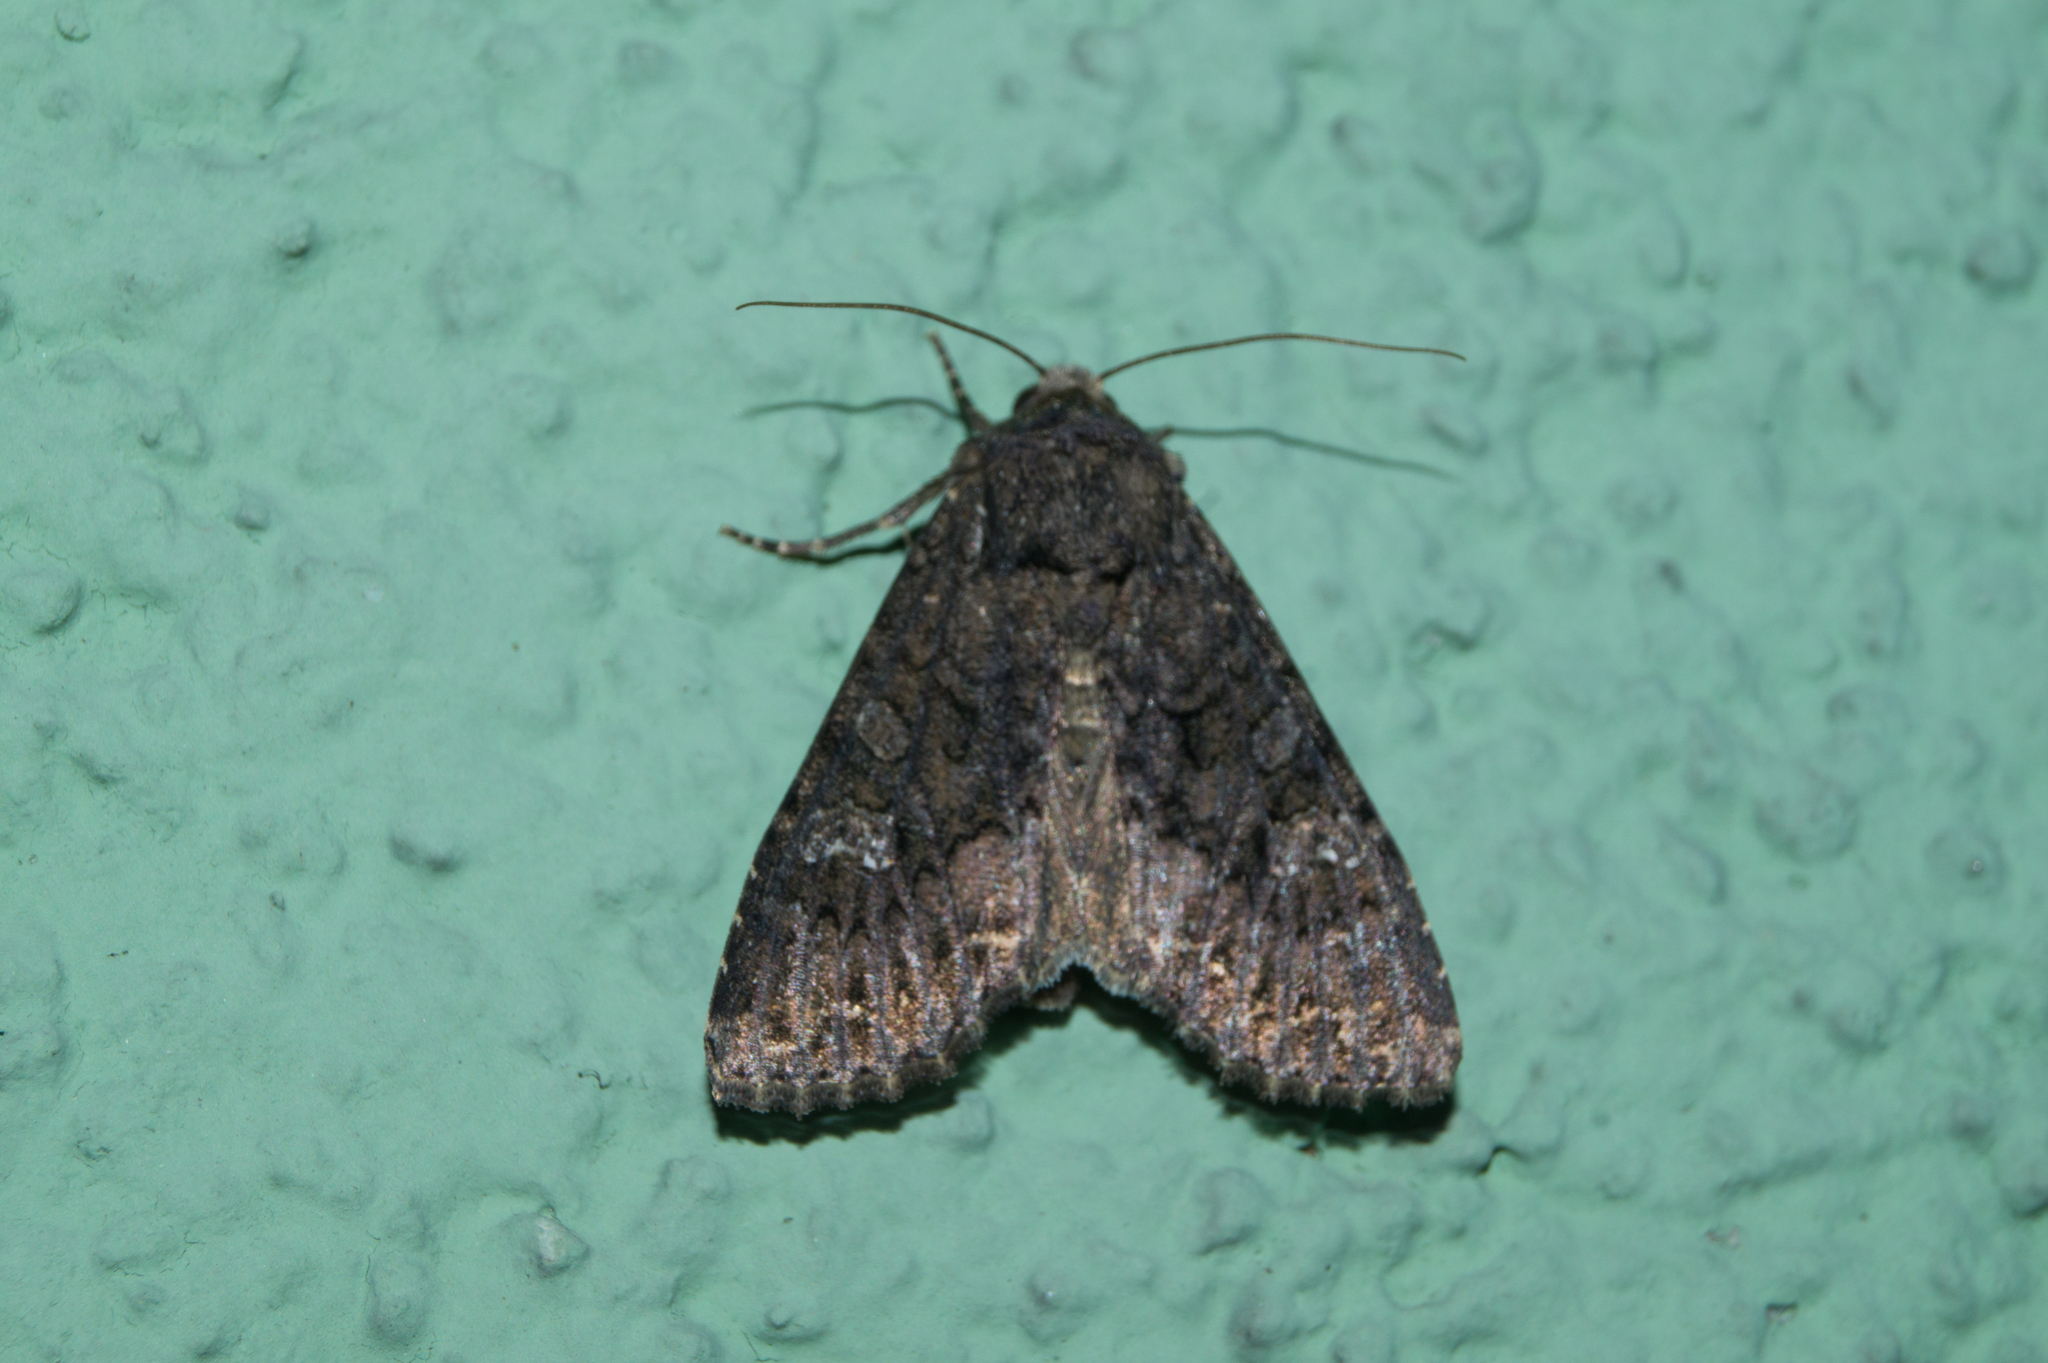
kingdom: Animalia
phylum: Arthropoda
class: Insecta
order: Lepidoptera
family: Noctuidae
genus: Mamestra
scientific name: Mamestra brassicae
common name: Cabbage moth
